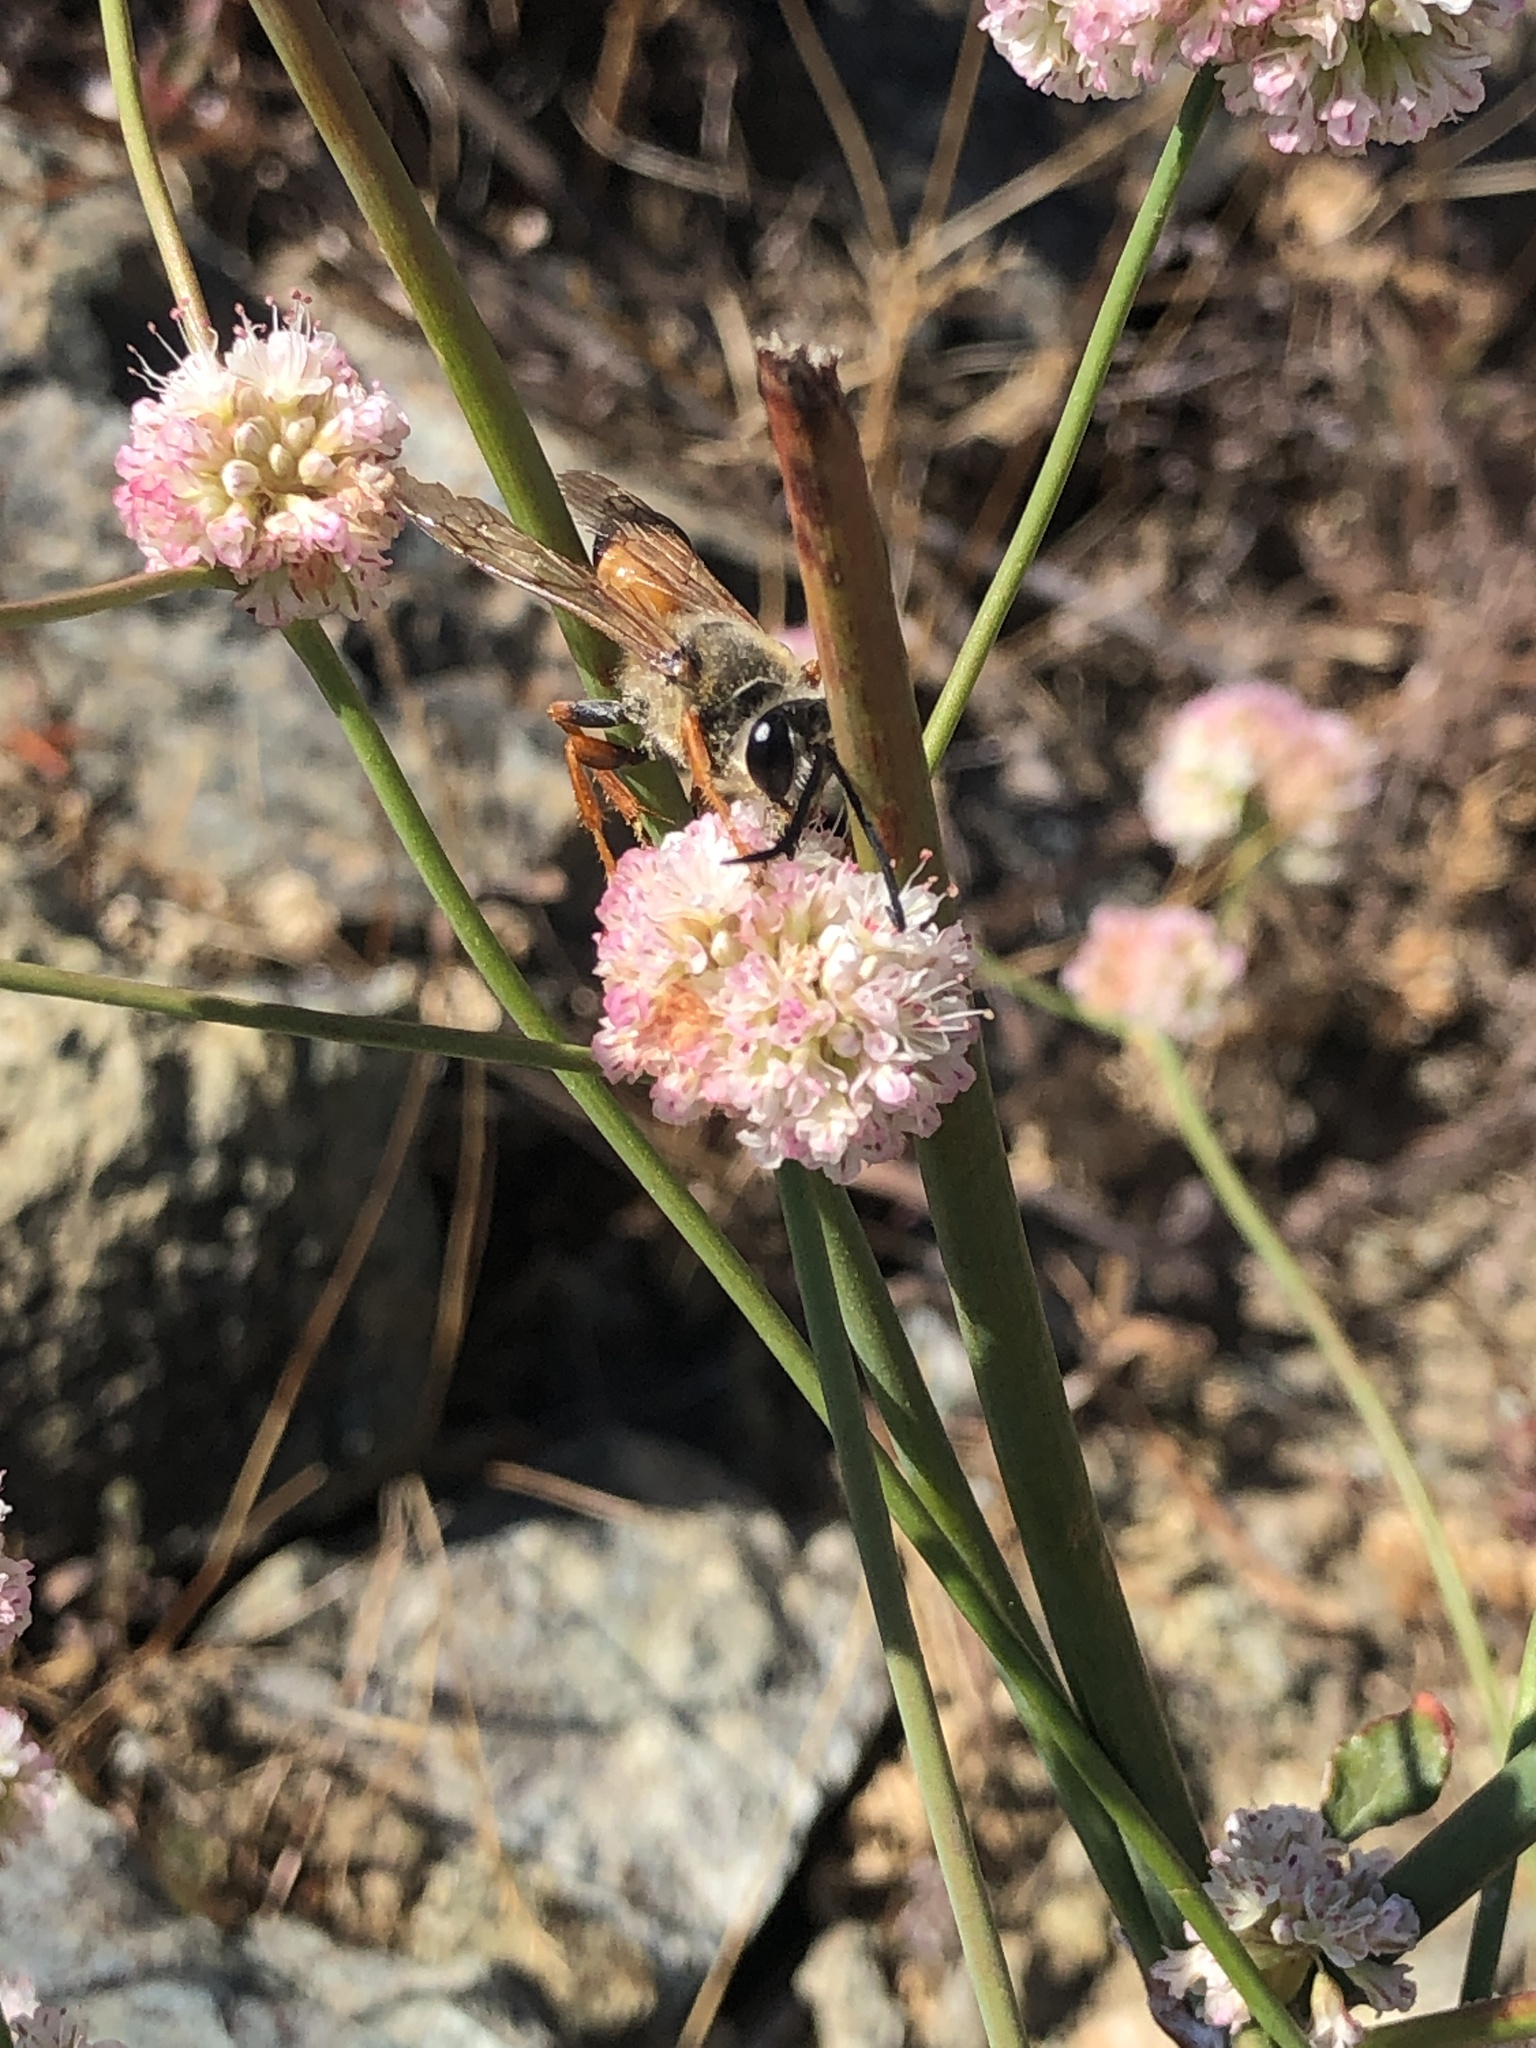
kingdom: Animalia
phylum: Arthropoda
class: Insecta
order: Hymenoptera
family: Sphecidae
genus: Sphex
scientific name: Sphex ichneumoneus
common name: Great golden digger wasp
